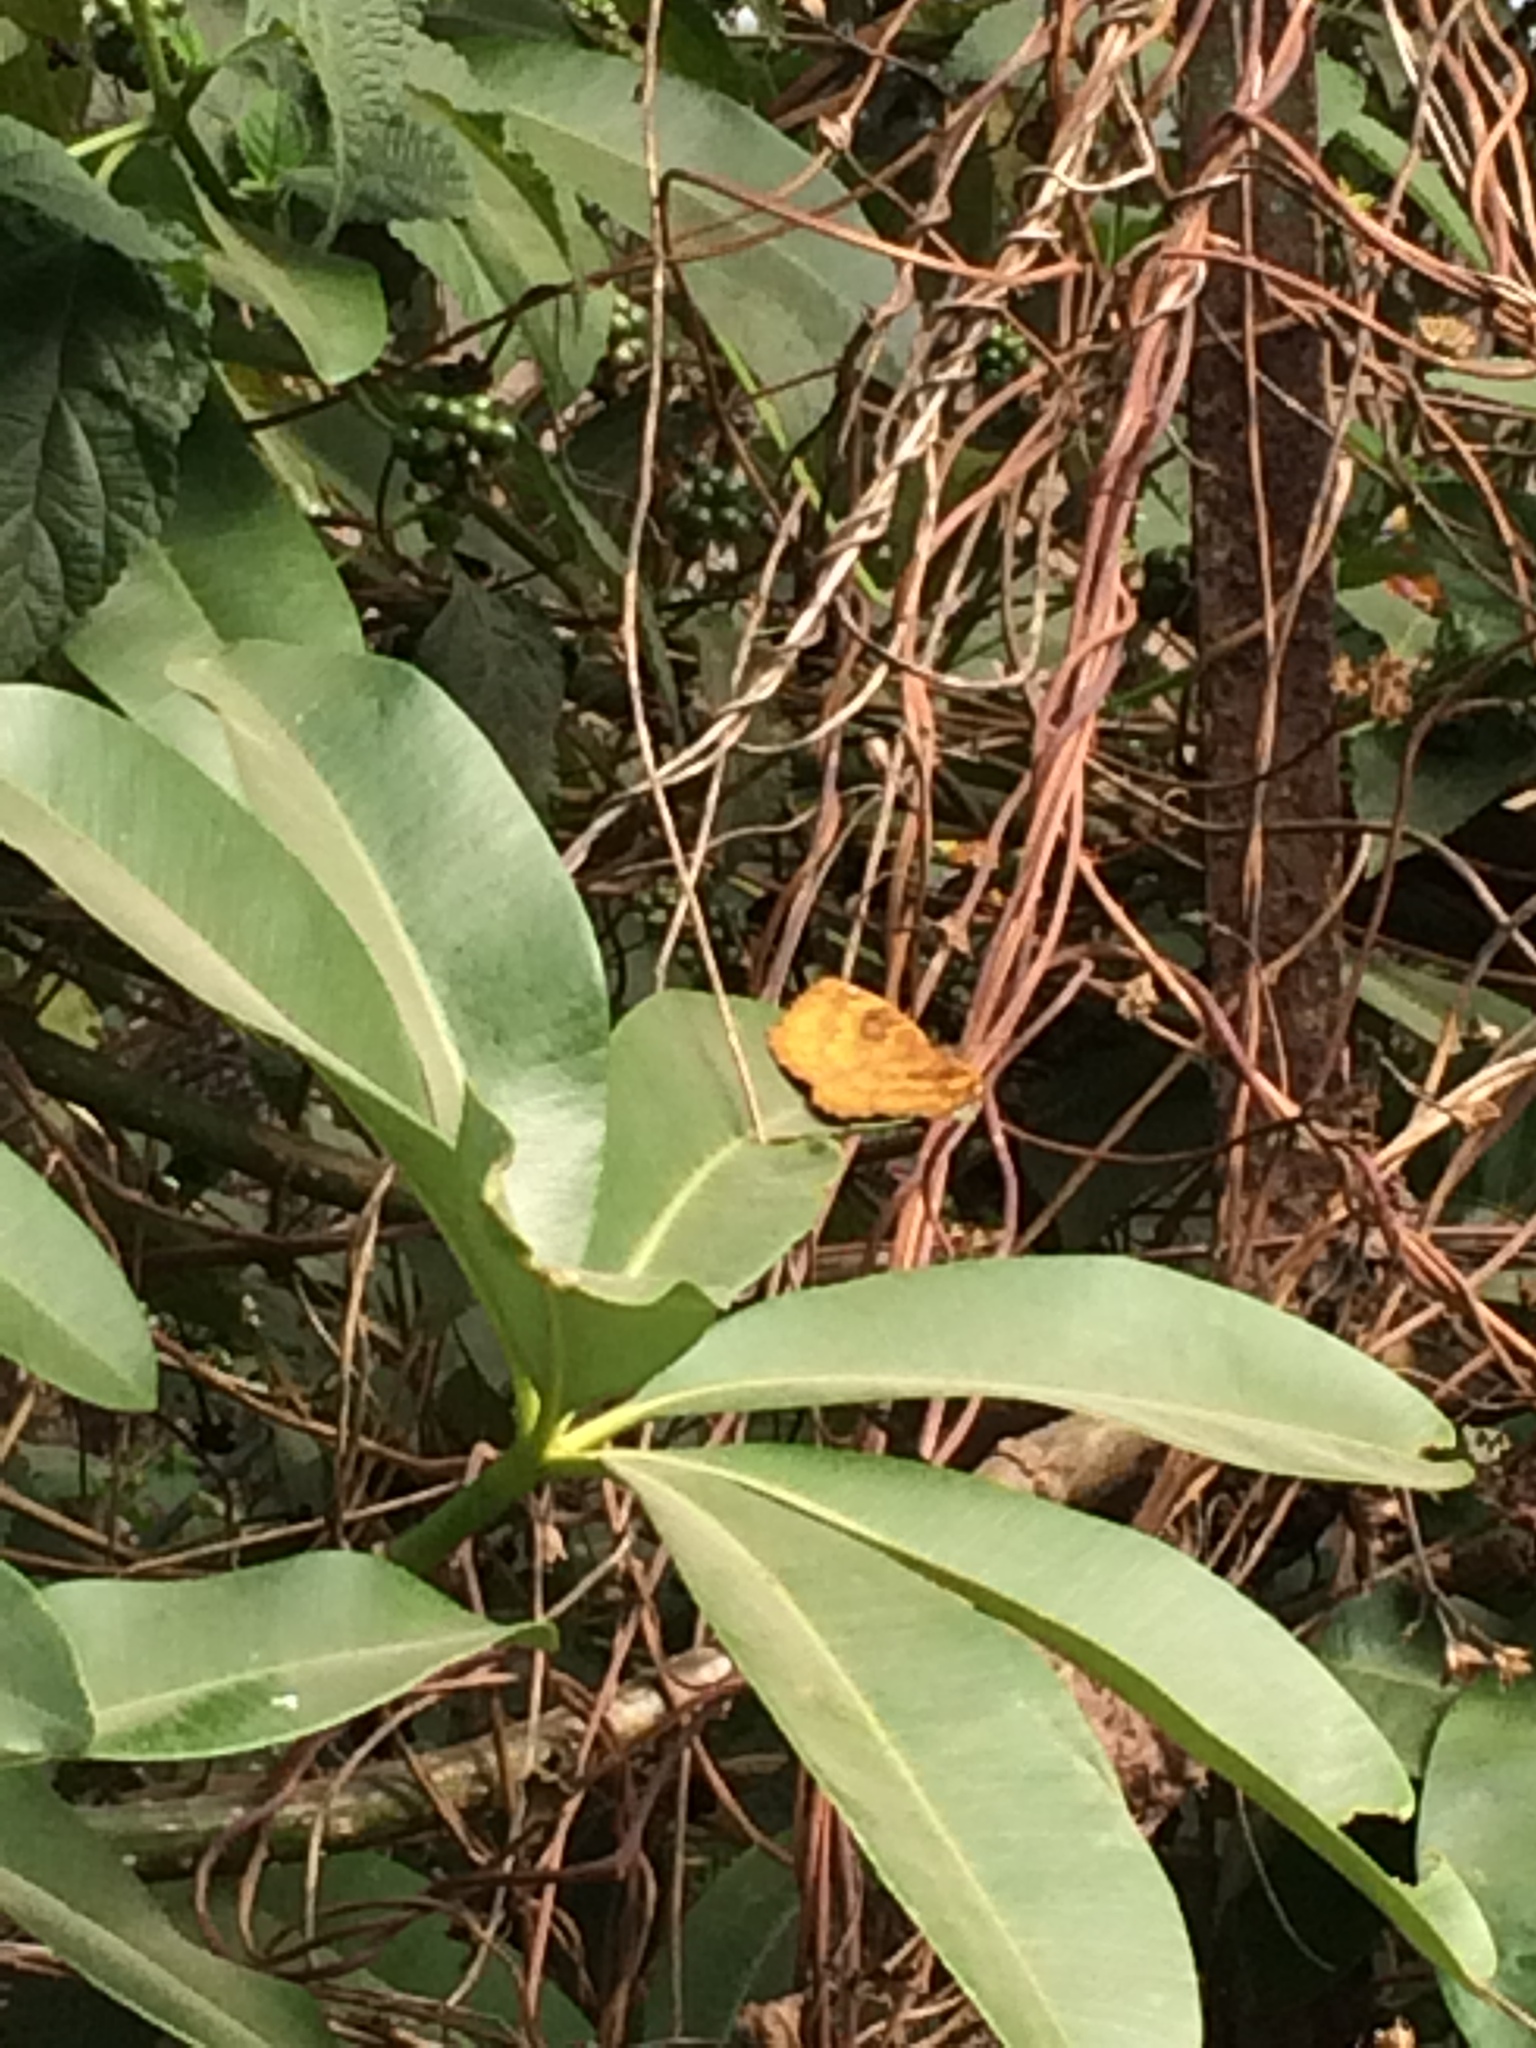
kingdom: Animalia
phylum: Arthropoda
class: Insecta
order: Lepidoptera
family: Nymphalidae
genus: Ariadne
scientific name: Ariadne merione
